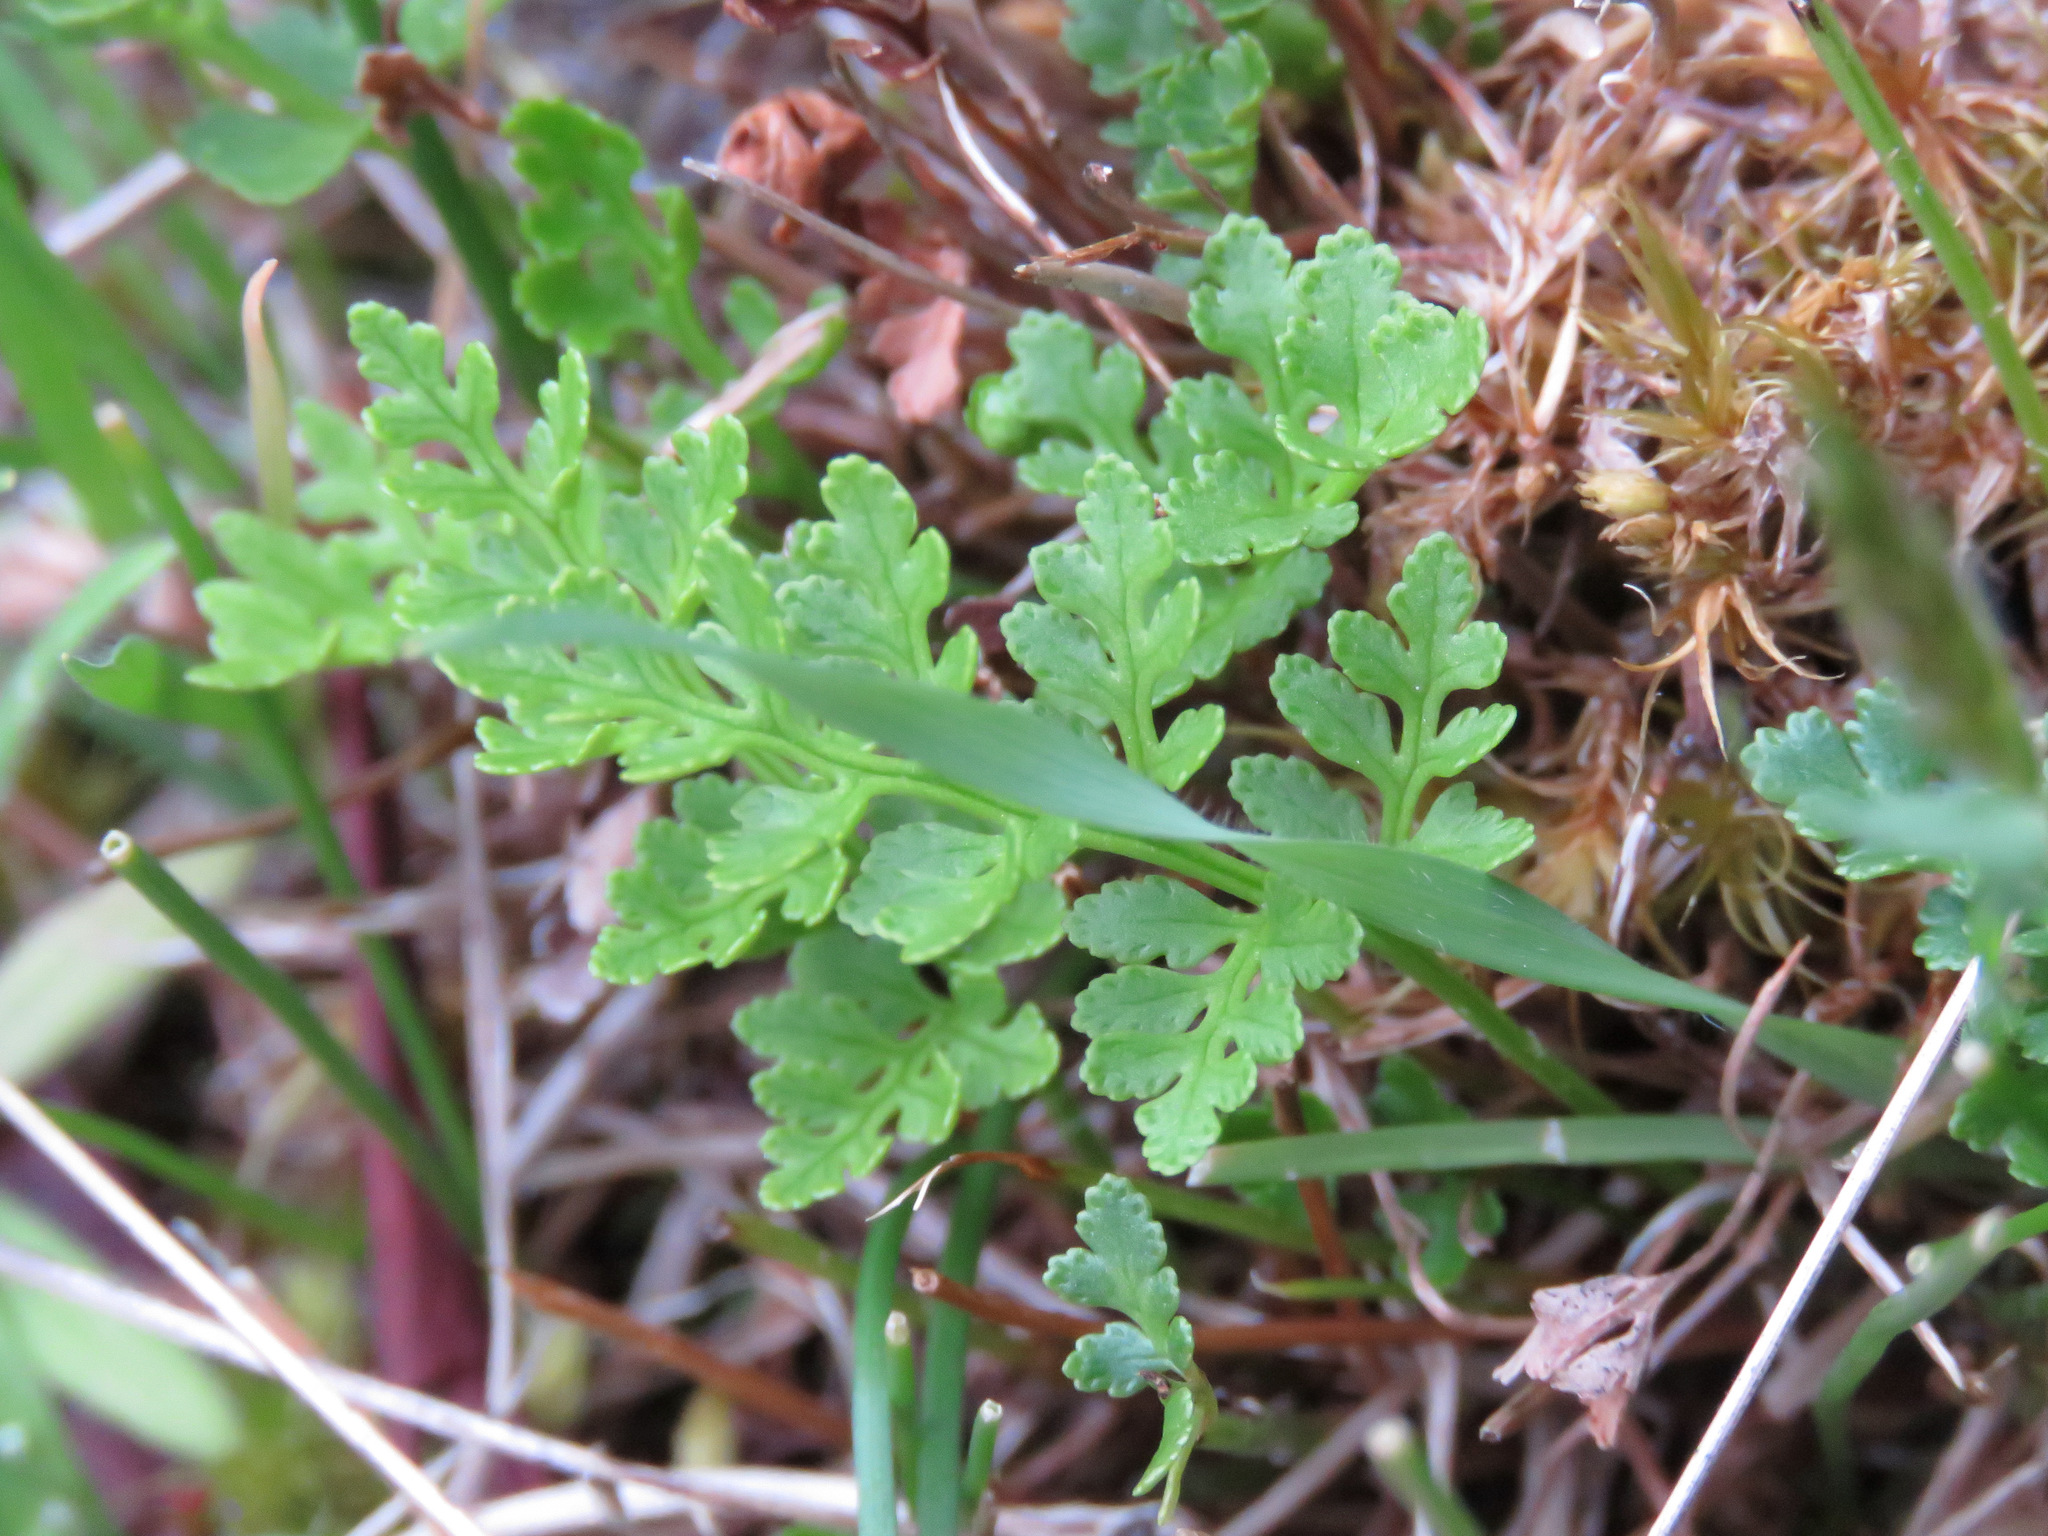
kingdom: Plantae
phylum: Tracheophyta
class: Polypodiopsida
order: Polypodiales
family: Pteridaceae
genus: Cryptogramma
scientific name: Cryptogramma acrostichoides
